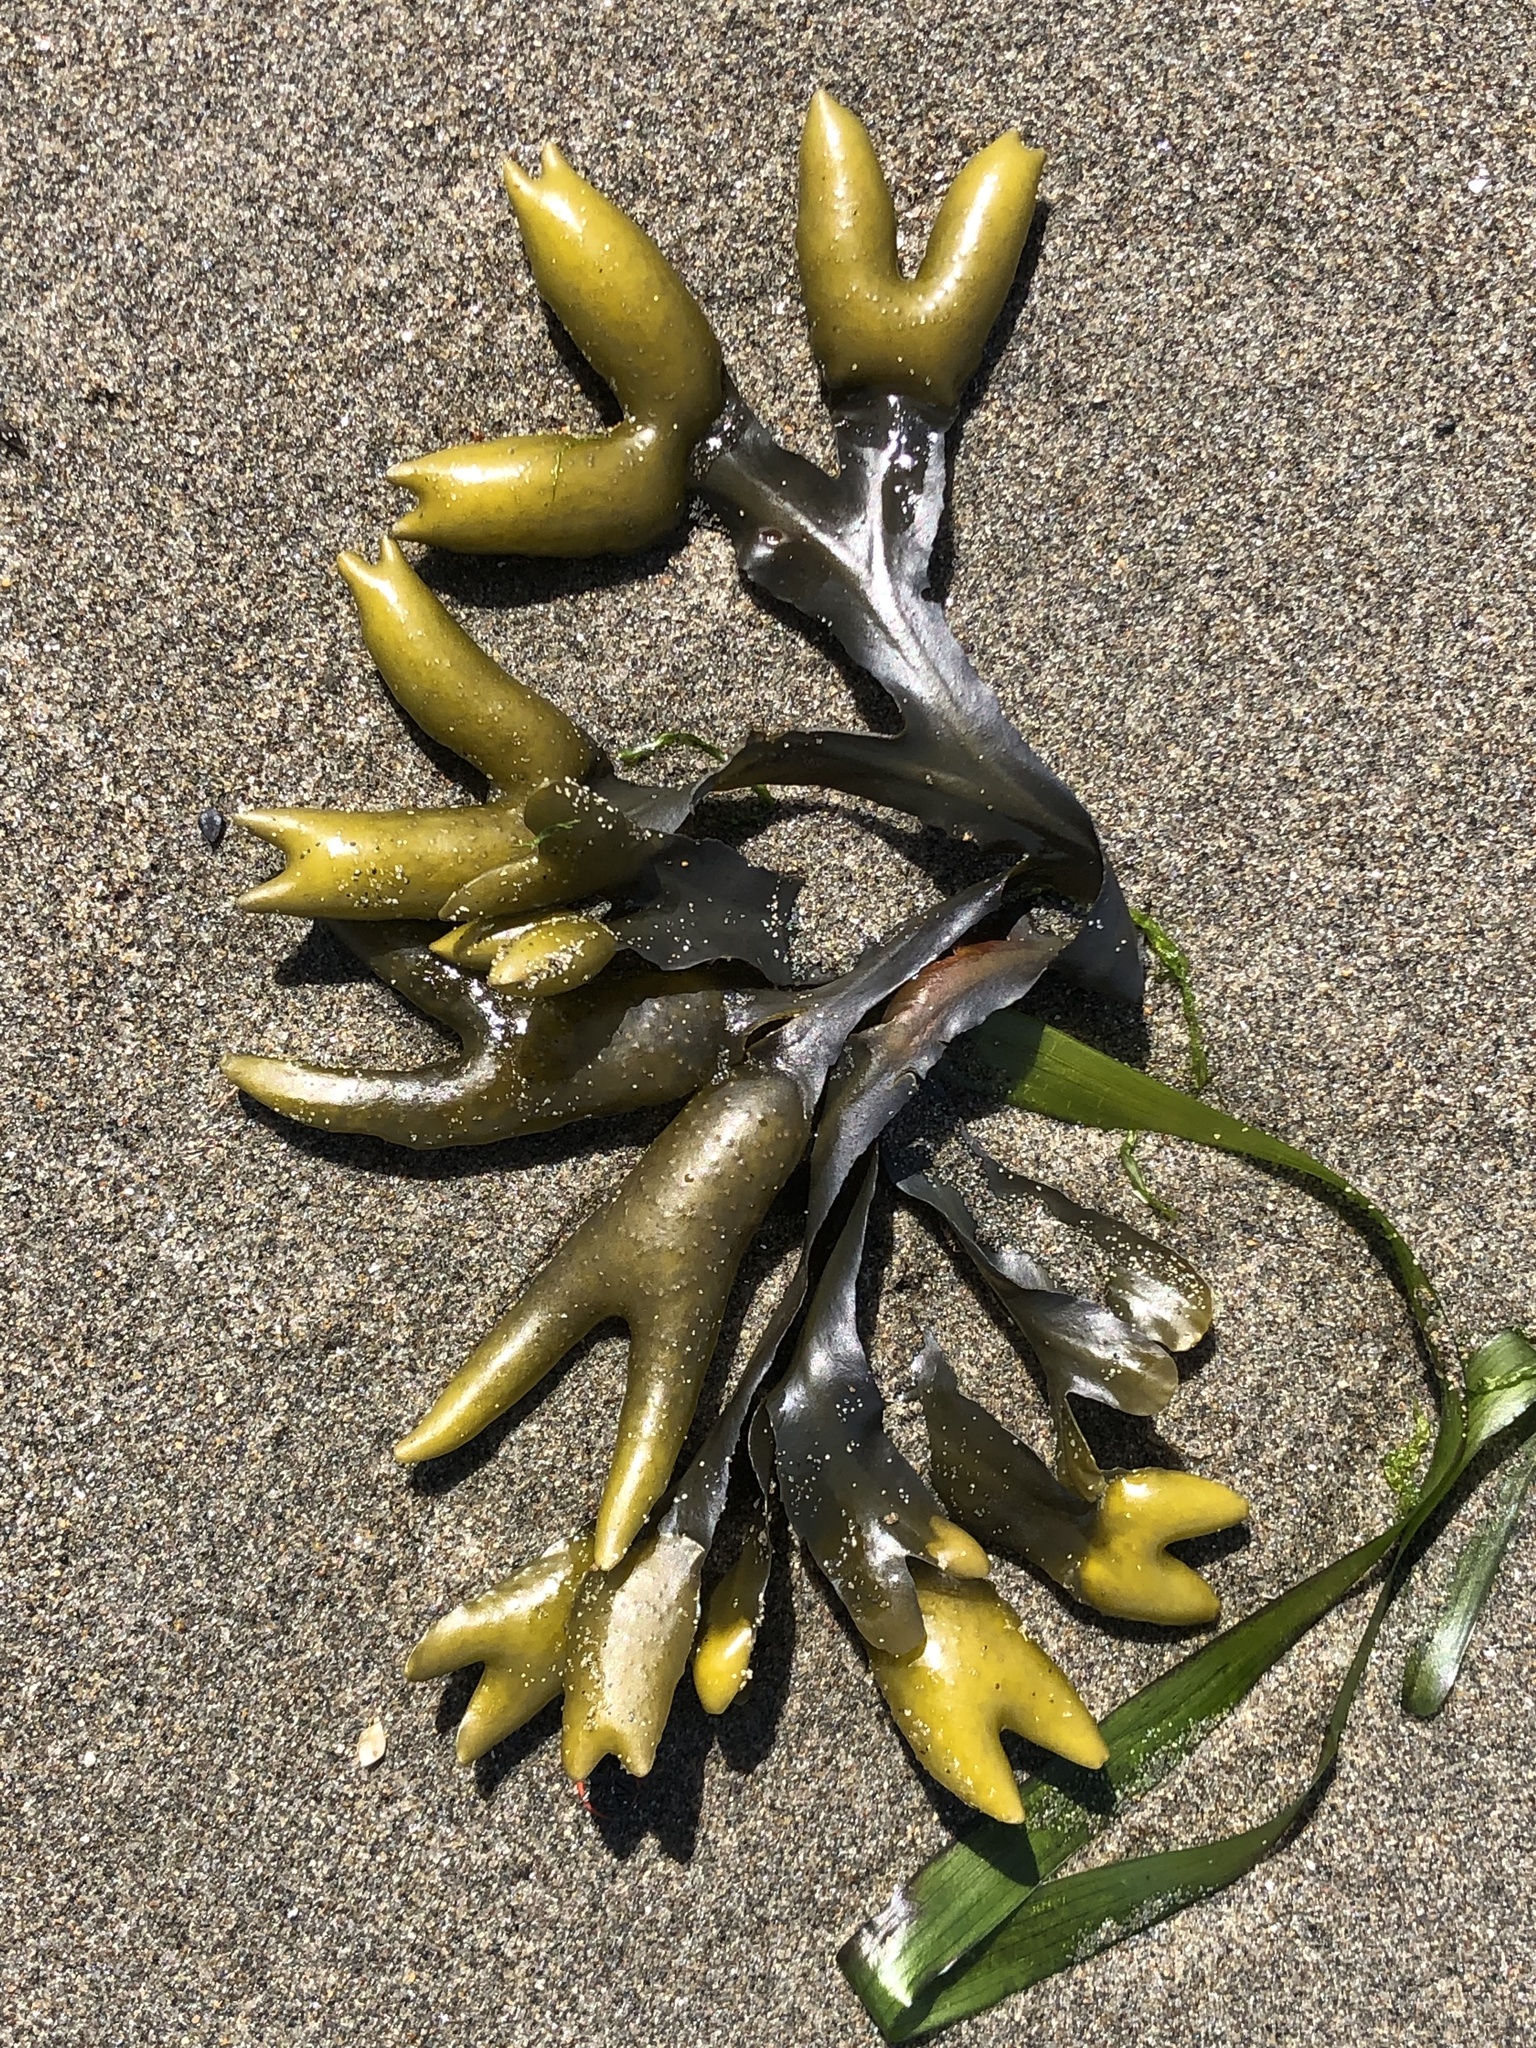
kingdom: Chromista
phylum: Ochrophyta
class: Phaeophyceae
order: Fucales
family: Fucaceae
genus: Fucus
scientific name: Fucus distichus
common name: Rockweed
